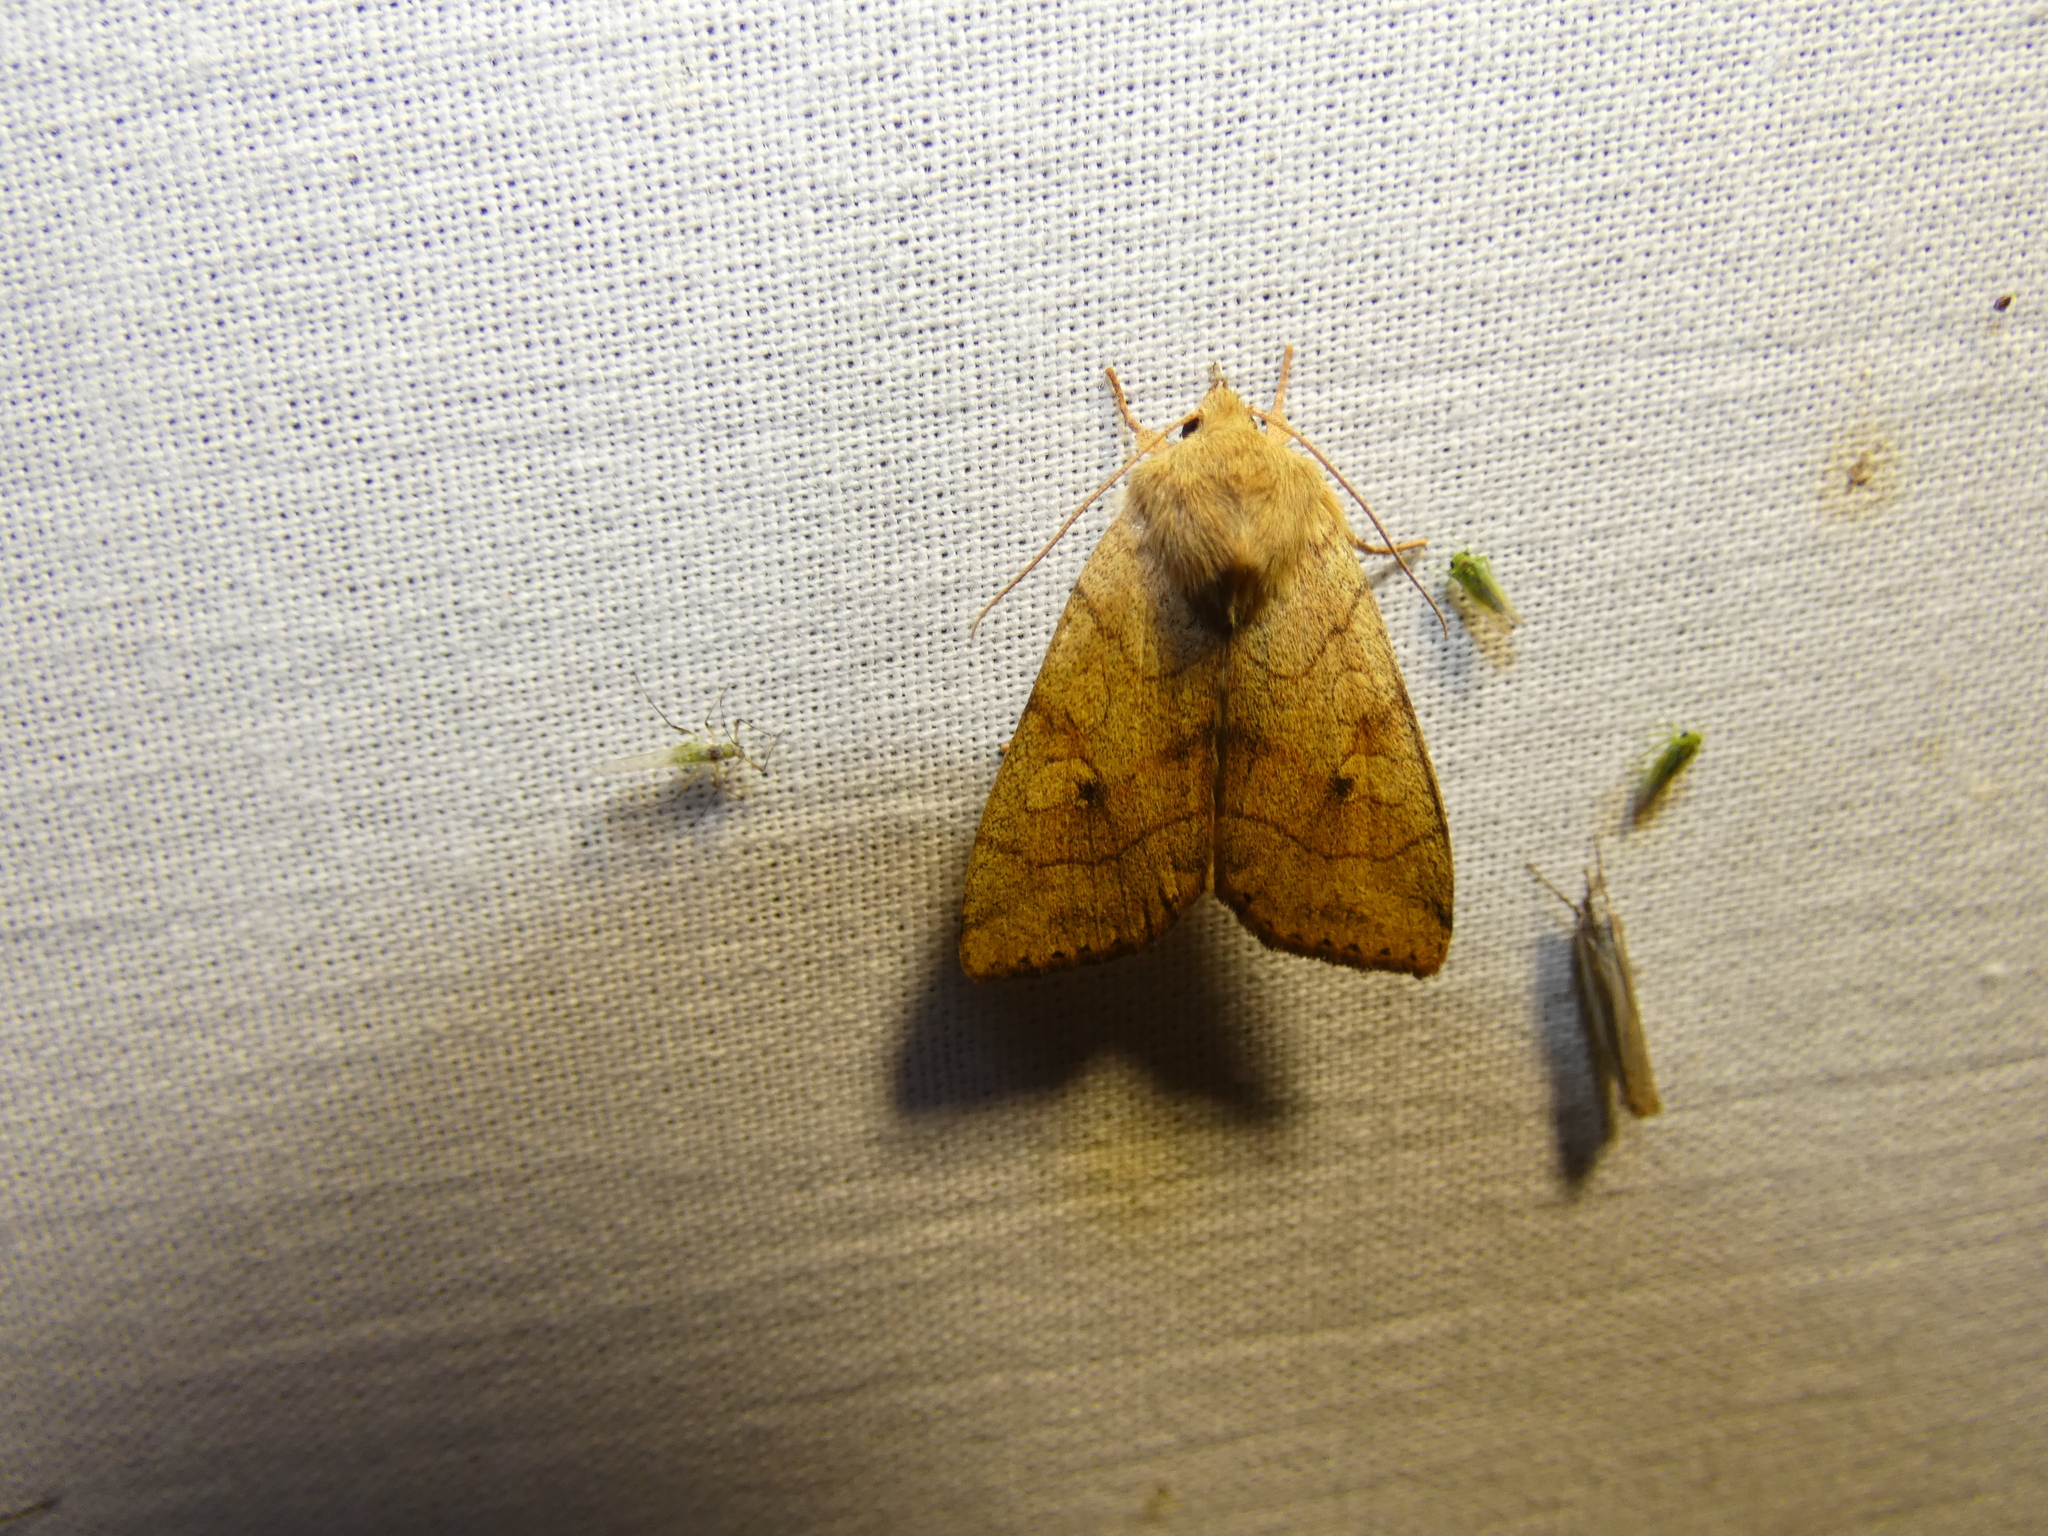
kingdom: Animalia
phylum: Arthropoda
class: Insecta
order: Lepidoptera
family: Noctuidae
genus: Enargia
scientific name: Enargia paleacea
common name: Angle-striped sallow
